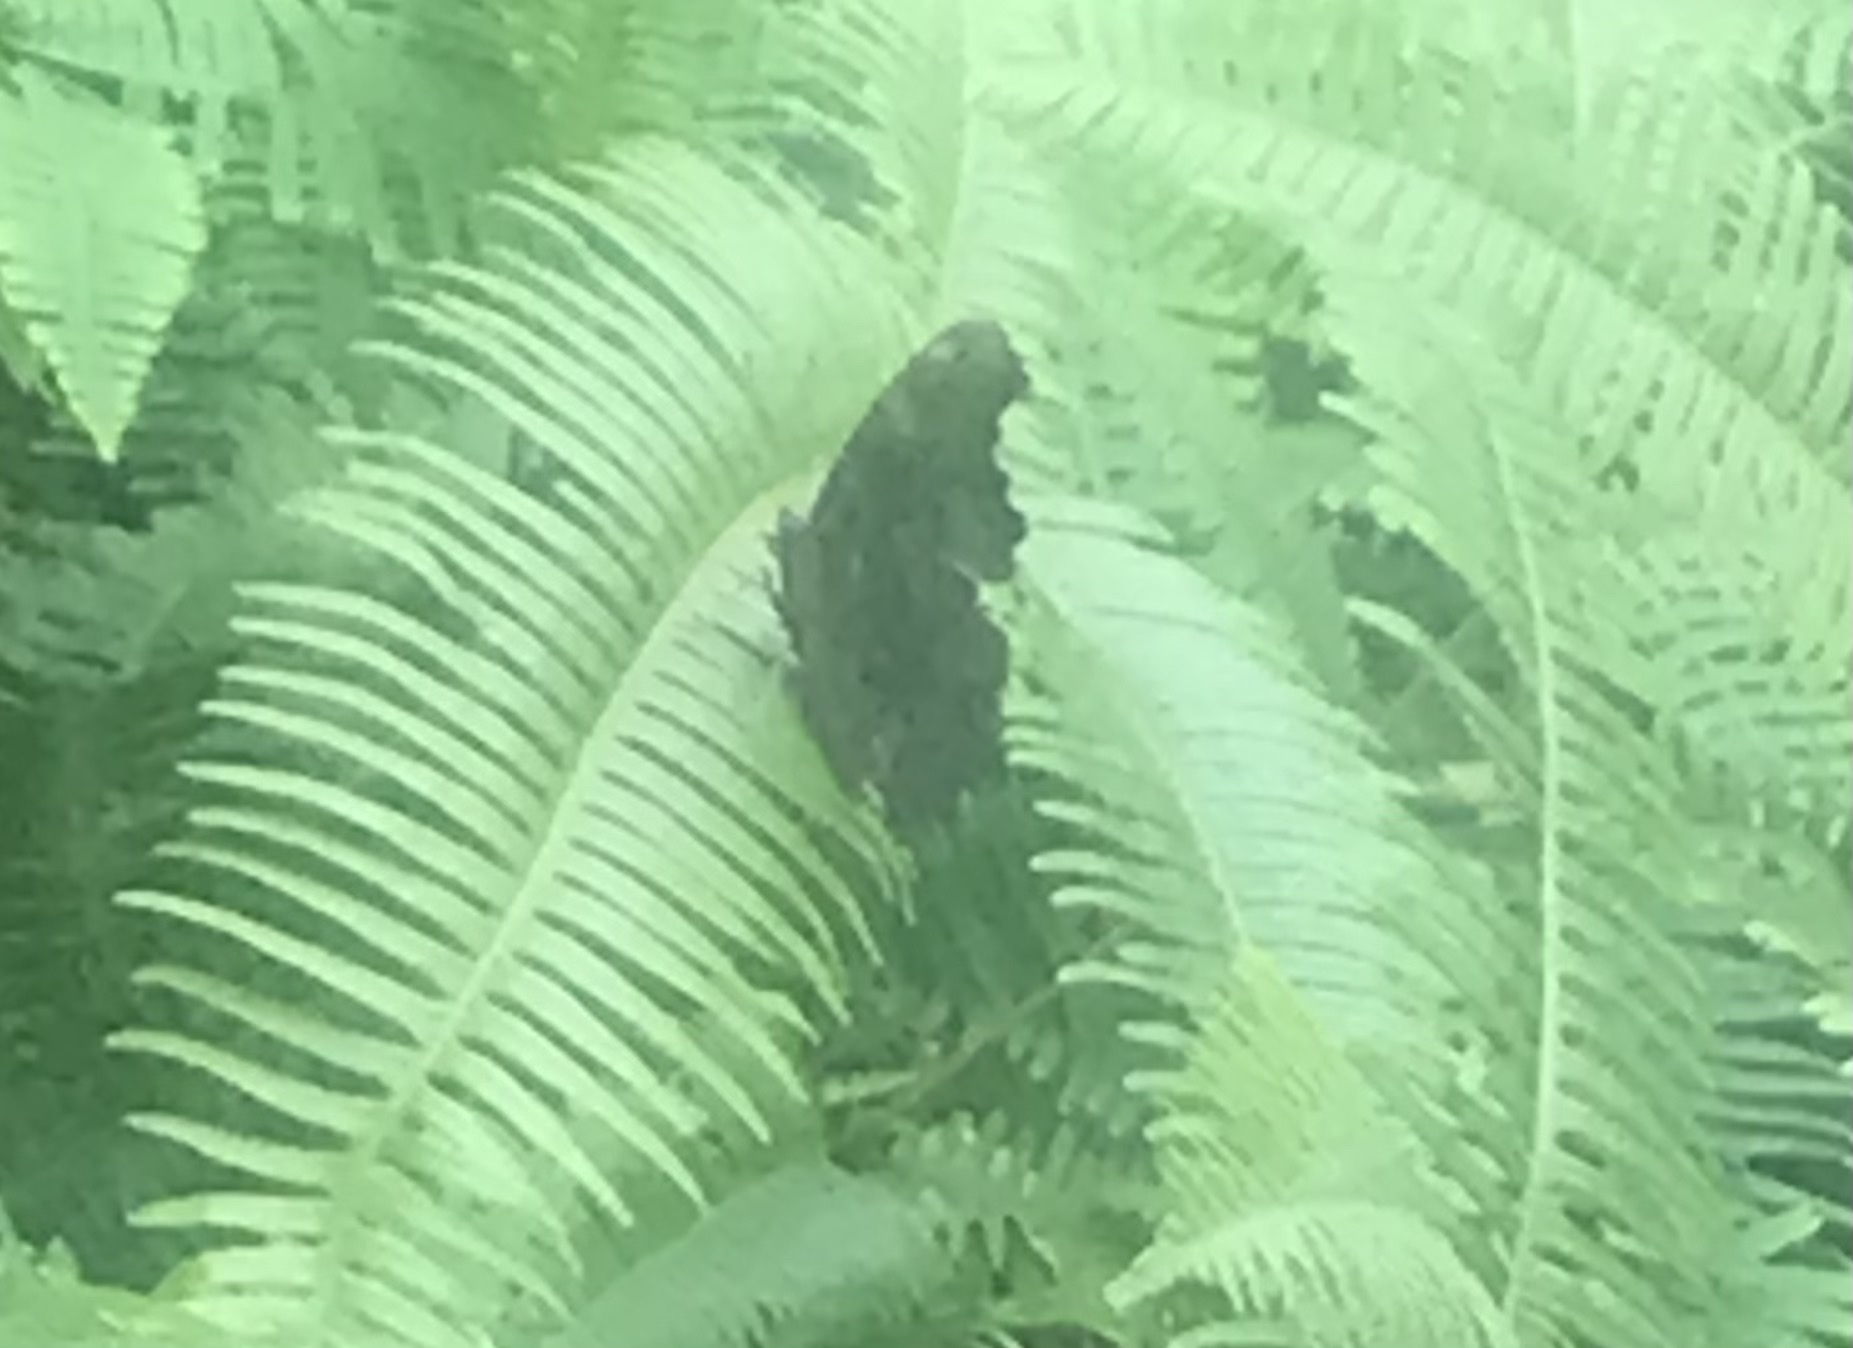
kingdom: Animalia
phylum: Arthropoda
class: Insecta
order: Lepidoptera
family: Nymphalidae
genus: Vanessa
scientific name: Vanessa Kaniska canace
